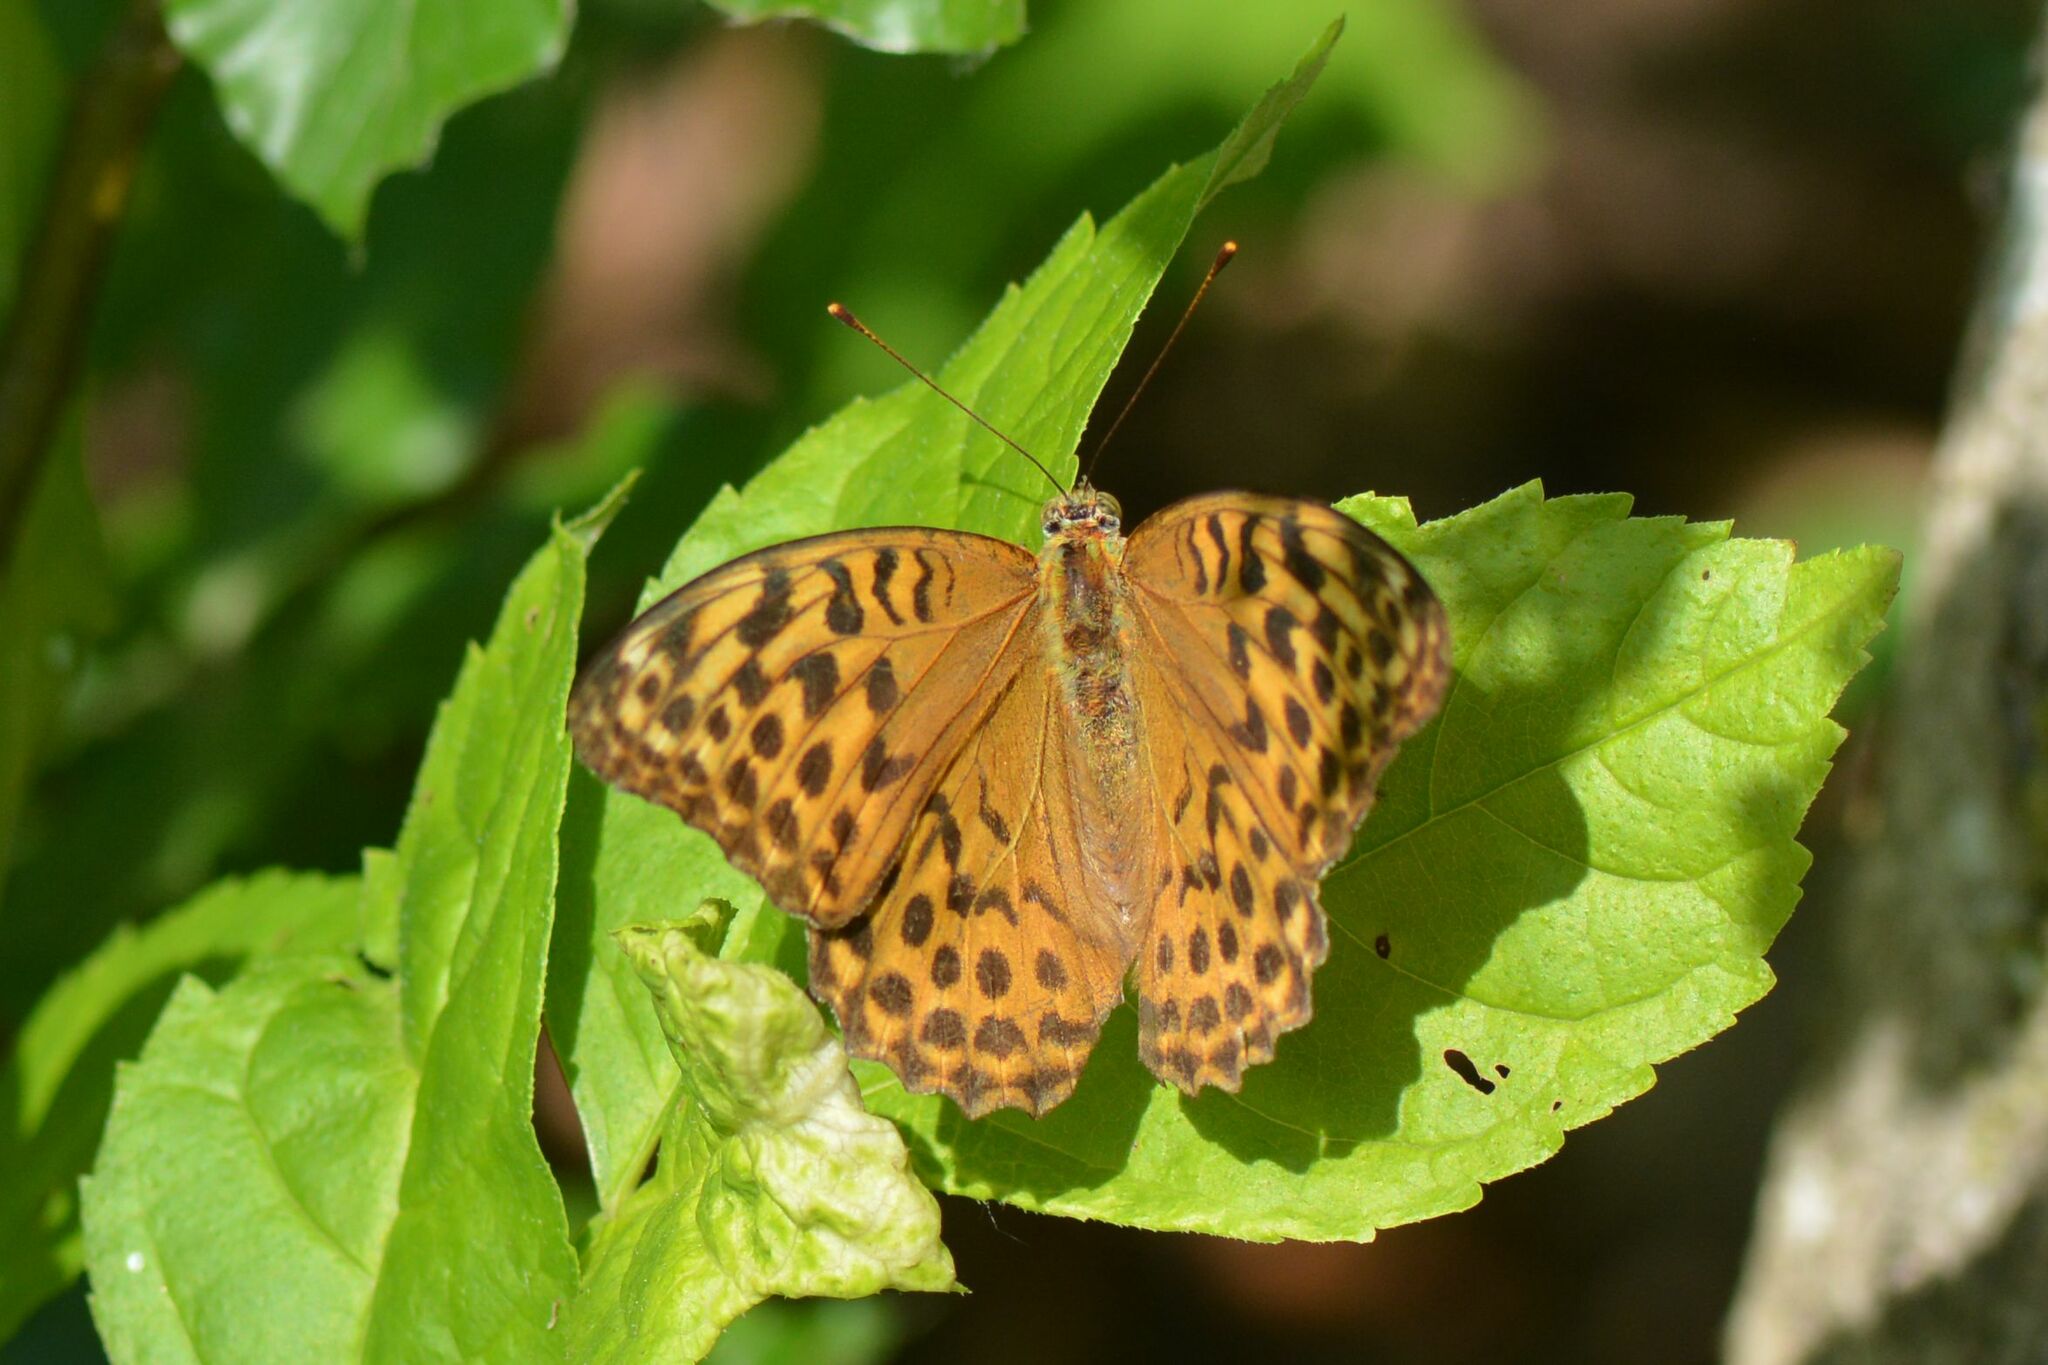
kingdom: Animalia
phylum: Arthropoda
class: Insecta
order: Lepidoptera
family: Nymphalidae
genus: Argynnis
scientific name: Argynnis paphia
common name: Silver-washed fritillary
